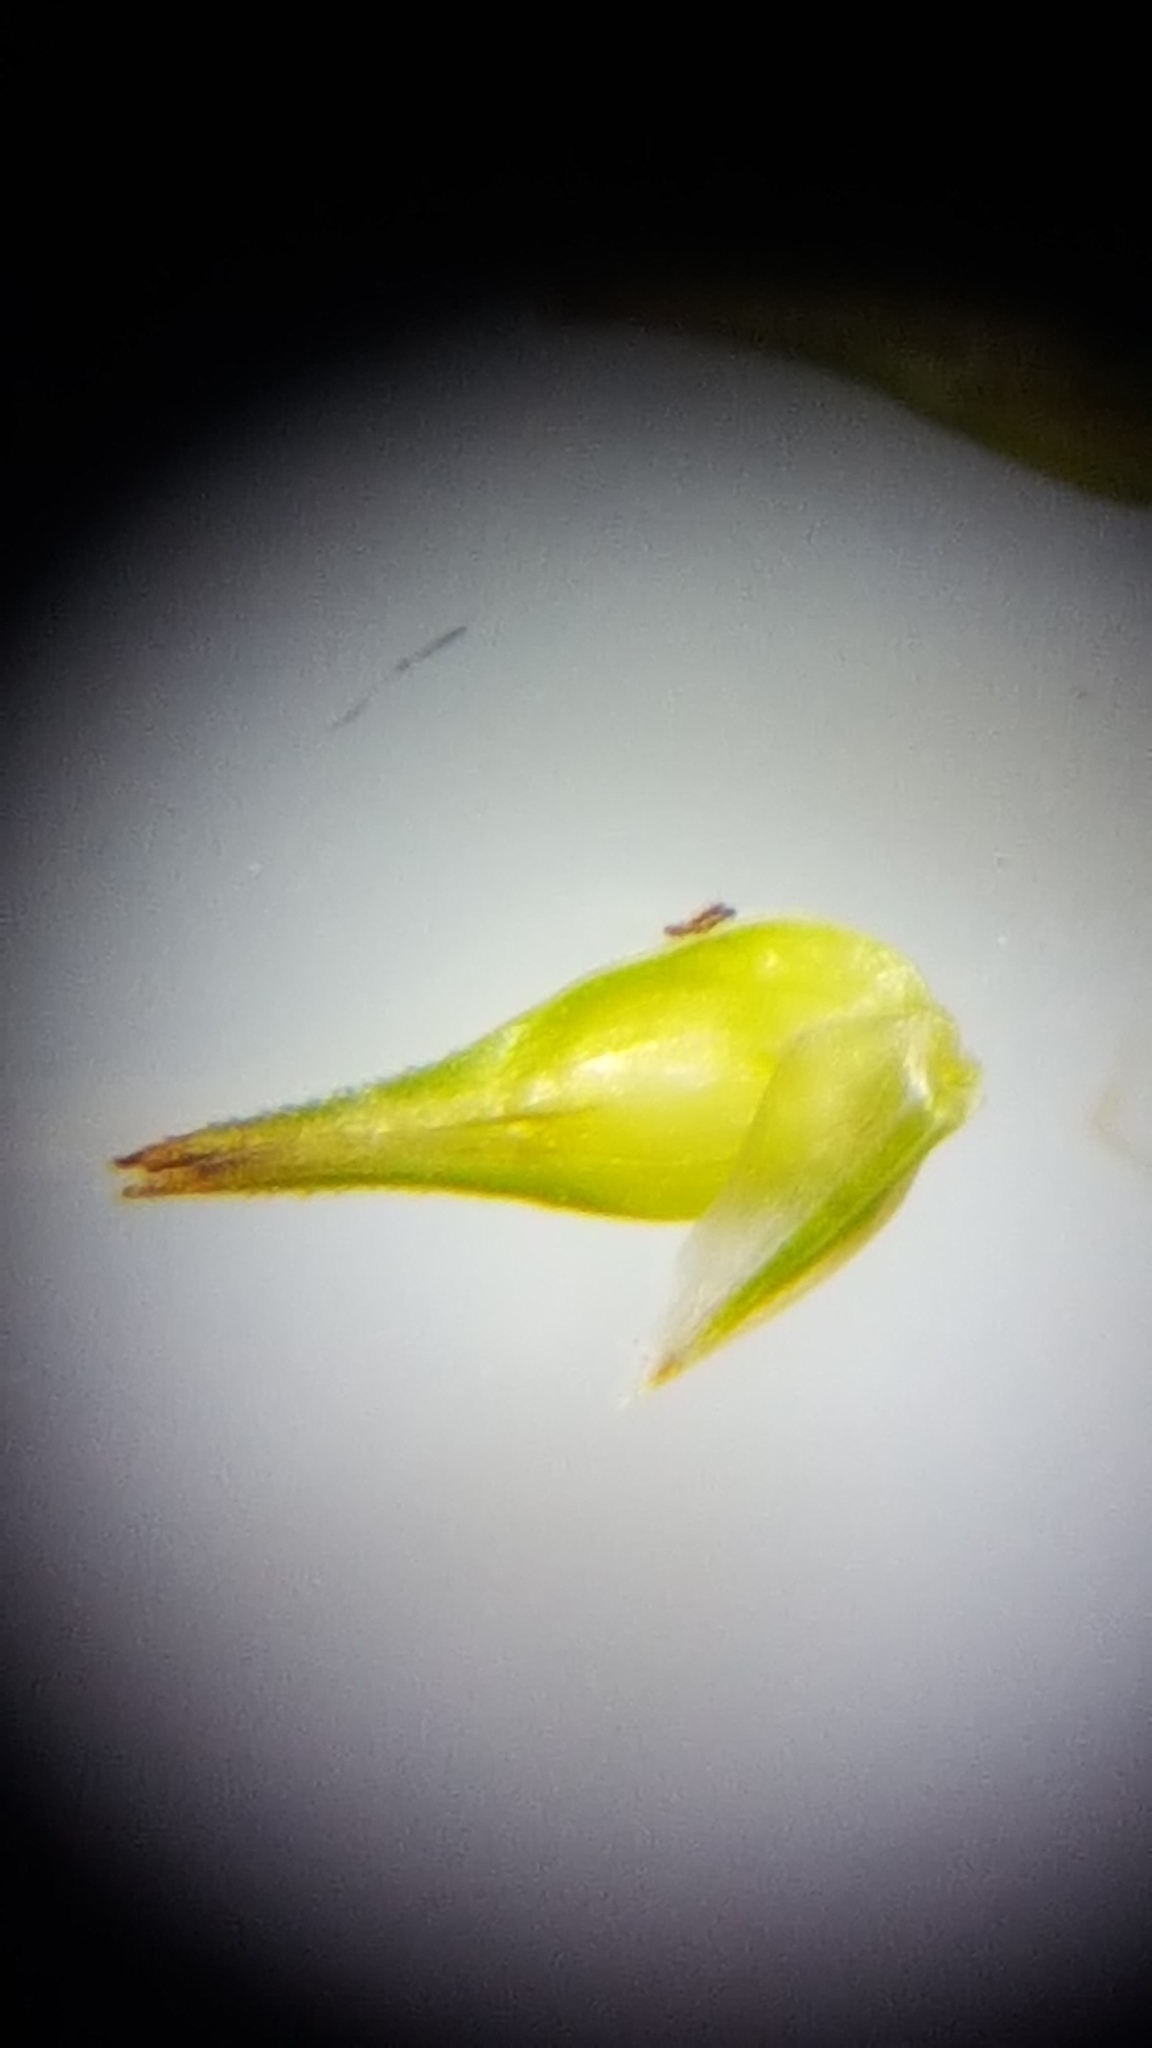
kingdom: Plantae
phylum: Tracheophyta
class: Liliopsida
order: Poales
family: Cyperaceae
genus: Carex
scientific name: Carex echinata
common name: Star sedge
